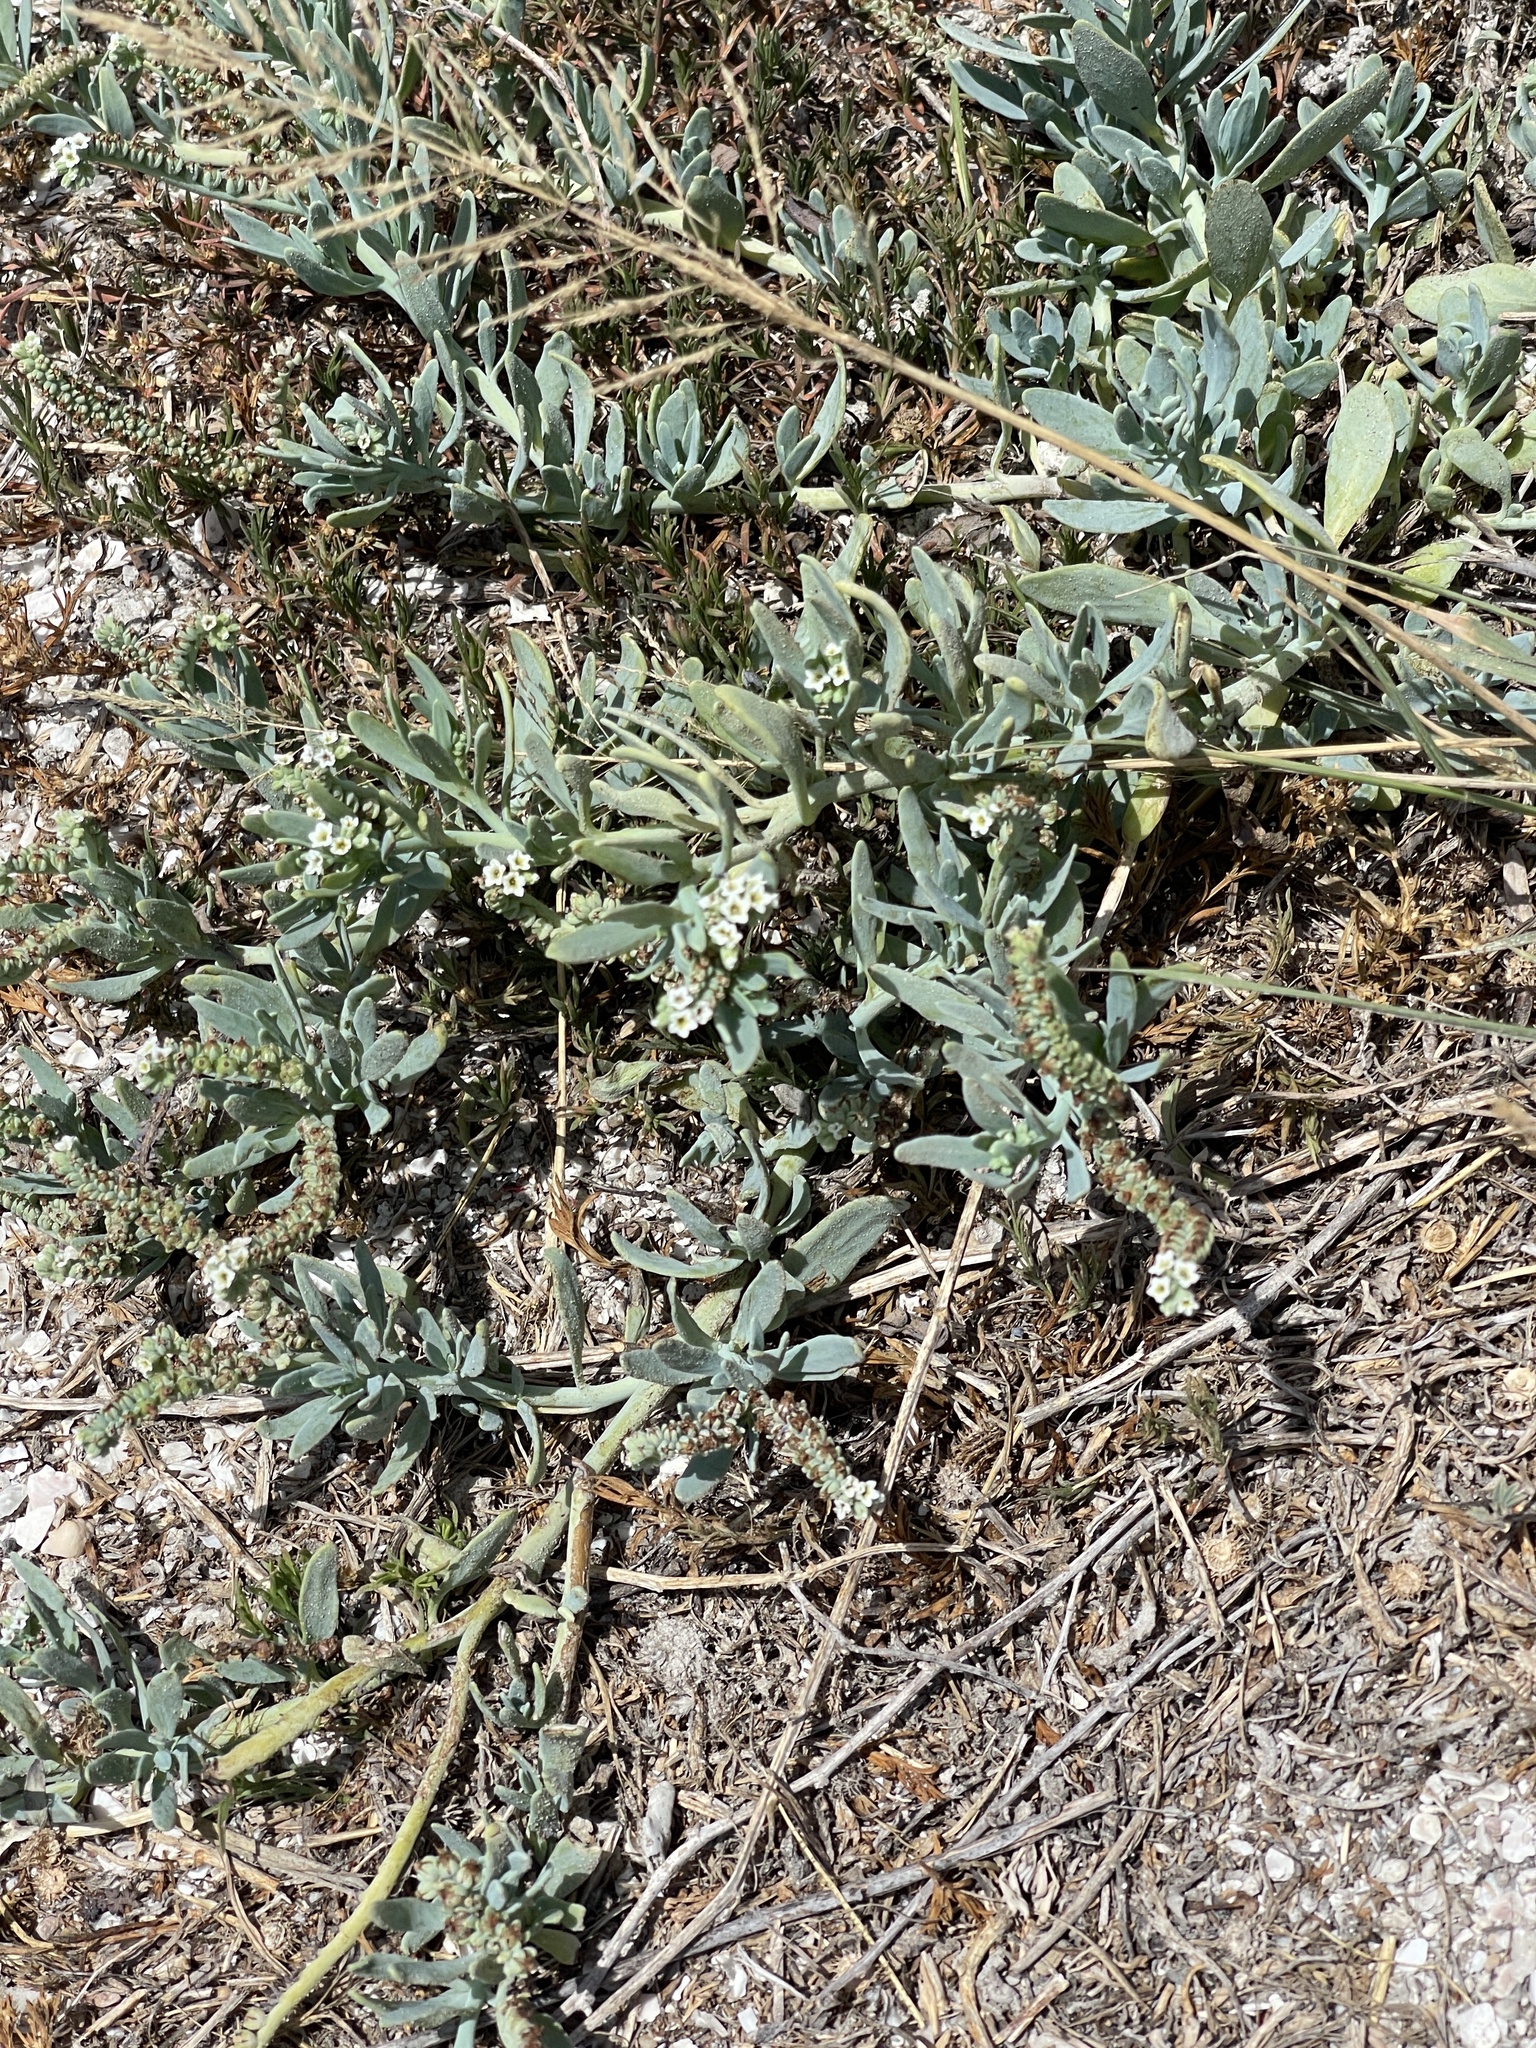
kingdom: Plantae
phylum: Tracheophyta
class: Magnoliopsida
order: Boraginales
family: Heliotropiaceae
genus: Heliotropium
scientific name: Heliotropium curassavicum
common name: Seaside heliotrope
